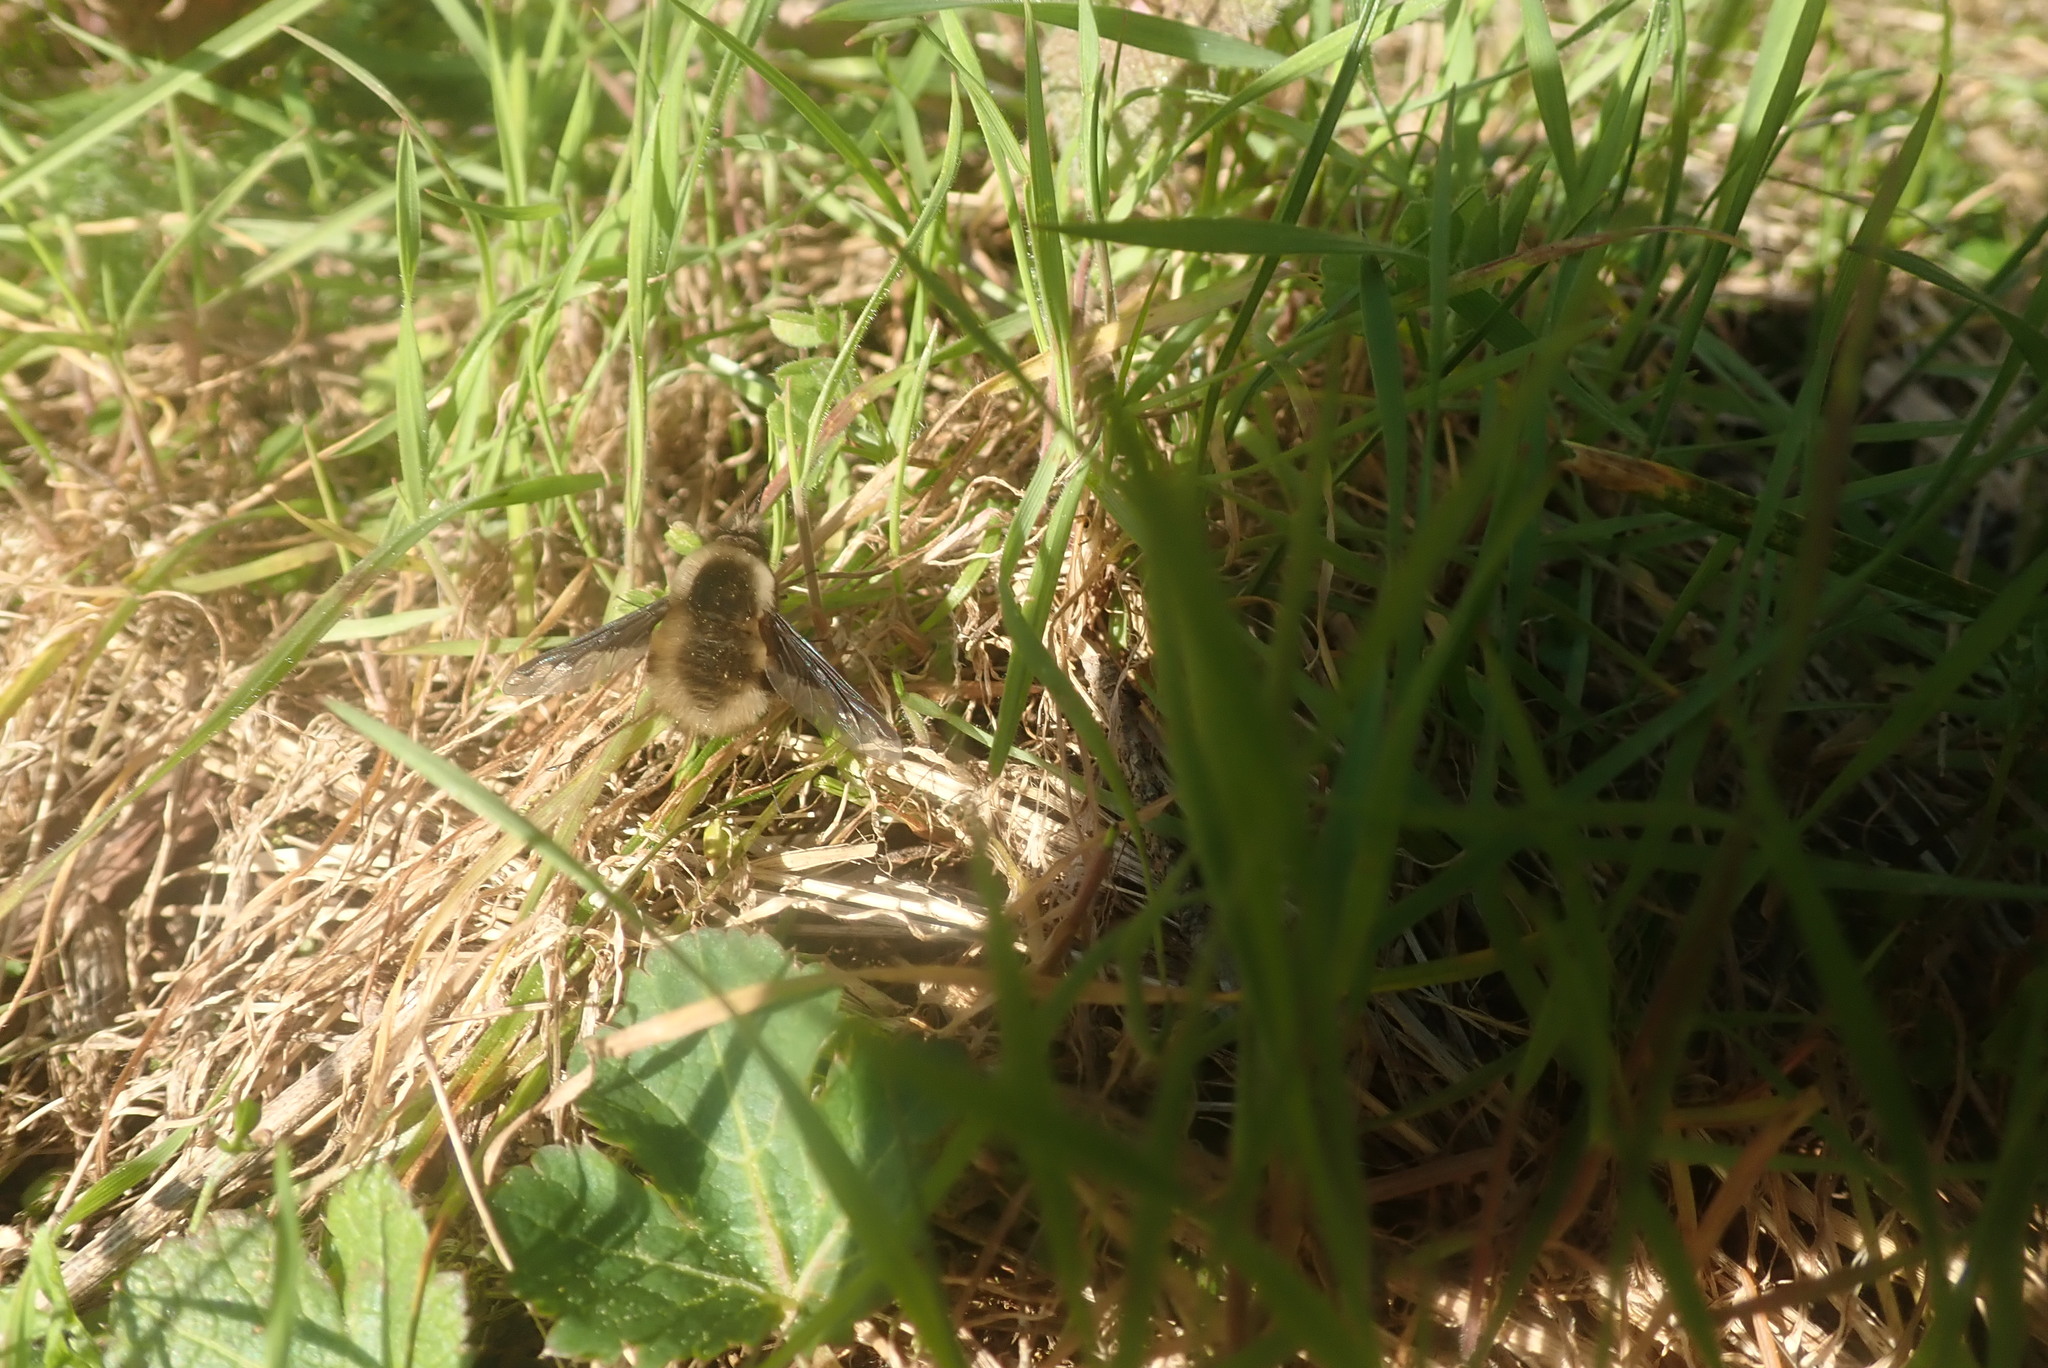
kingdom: Animalia
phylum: Arthropoda
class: Insecta
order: Diptera
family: Bombyliidae
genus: Bombylius
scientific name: Bombylius major
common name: Bee fly
